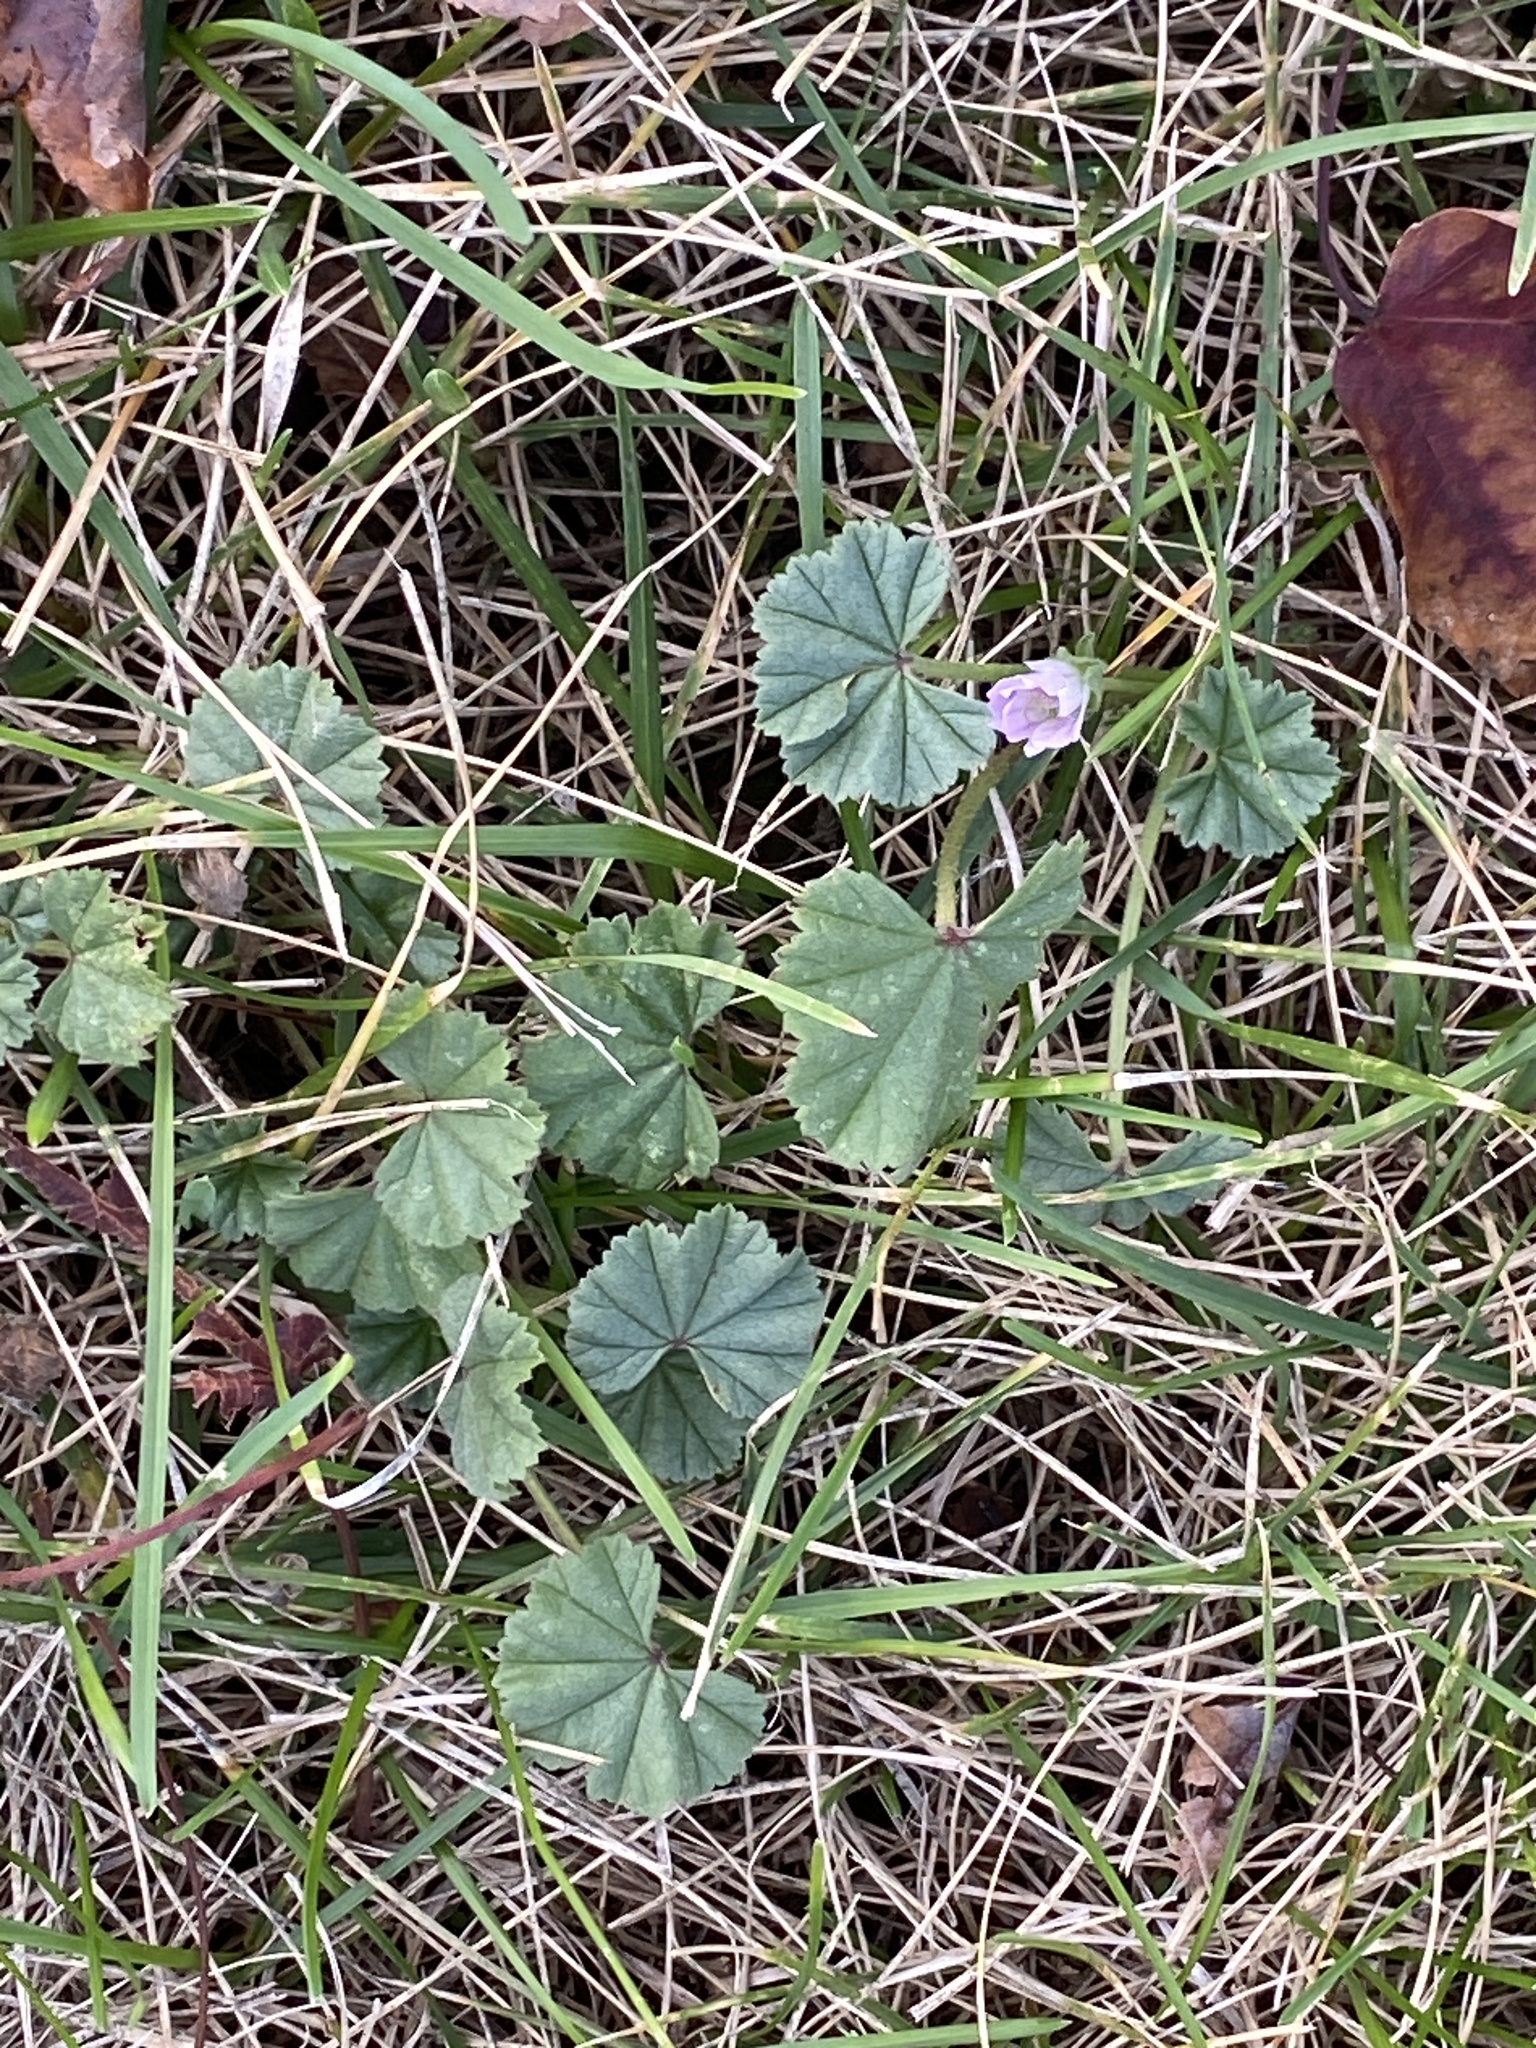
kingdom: Plantae
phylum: Tracheophyta
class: Magnoliopsida
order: Malvales
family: Malvaceae
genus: Malva
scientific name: Malva neglecta
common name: Common mallow
